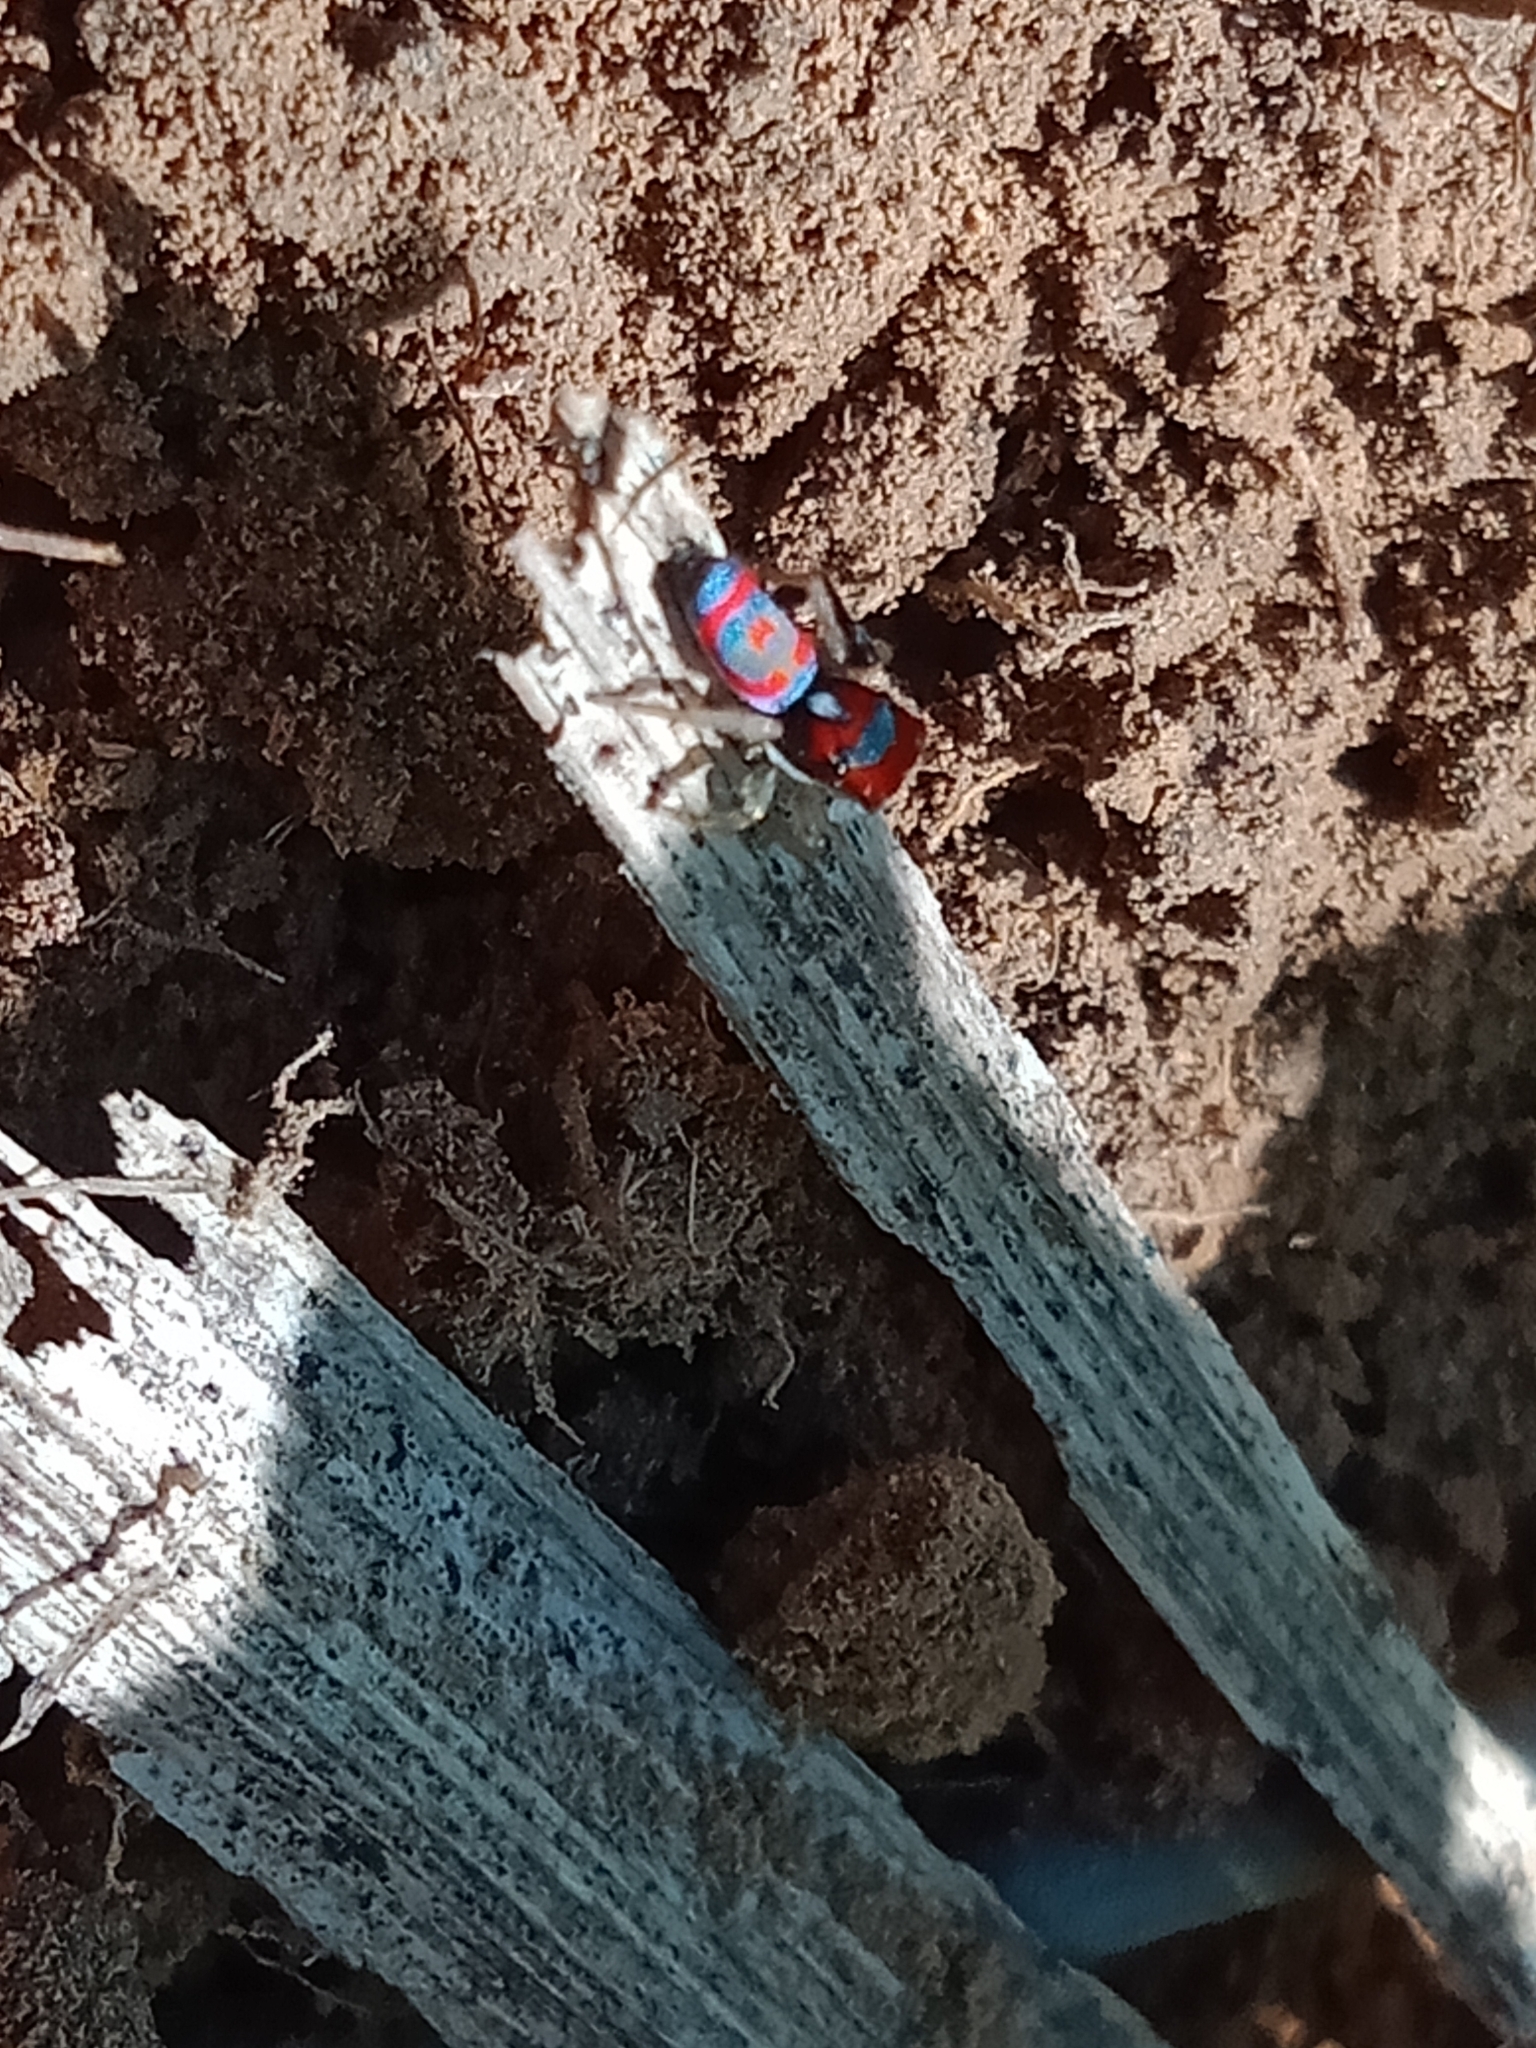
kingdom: Animalia
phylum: Arthropoda
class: Arachnida
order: Araneae
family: Salticidae
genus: Maratus
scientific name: Maratus splendens
